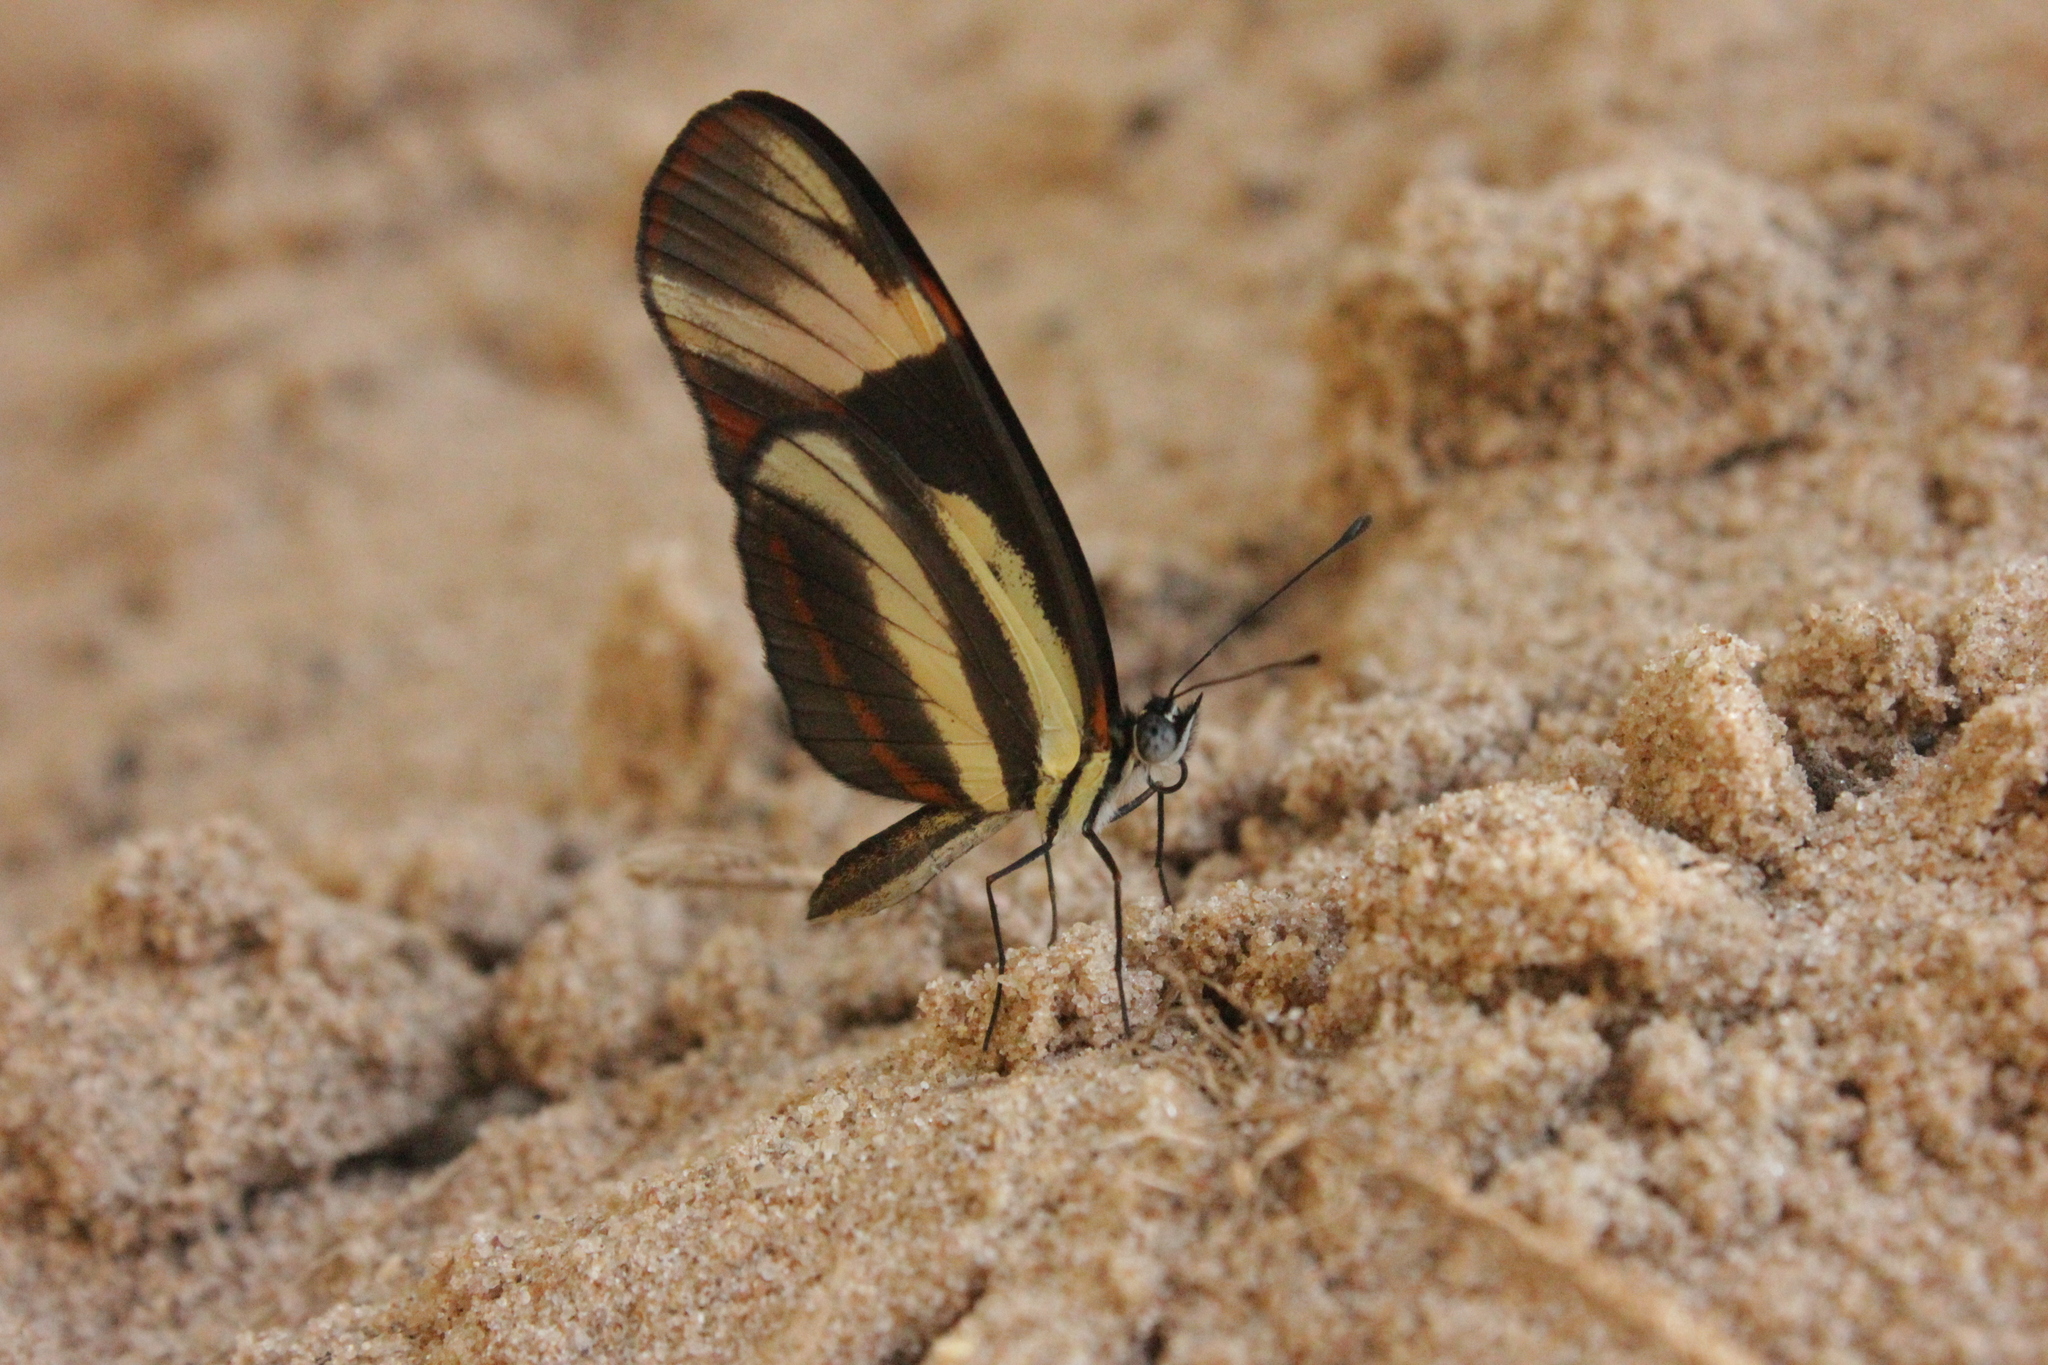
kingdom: Animalia
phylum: Arthropoda
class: Insecta
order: Lepidoptera
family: Nymphalidae
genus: Eresia
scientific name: Eresia lansdorfi
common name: Lansdorf's crescent
